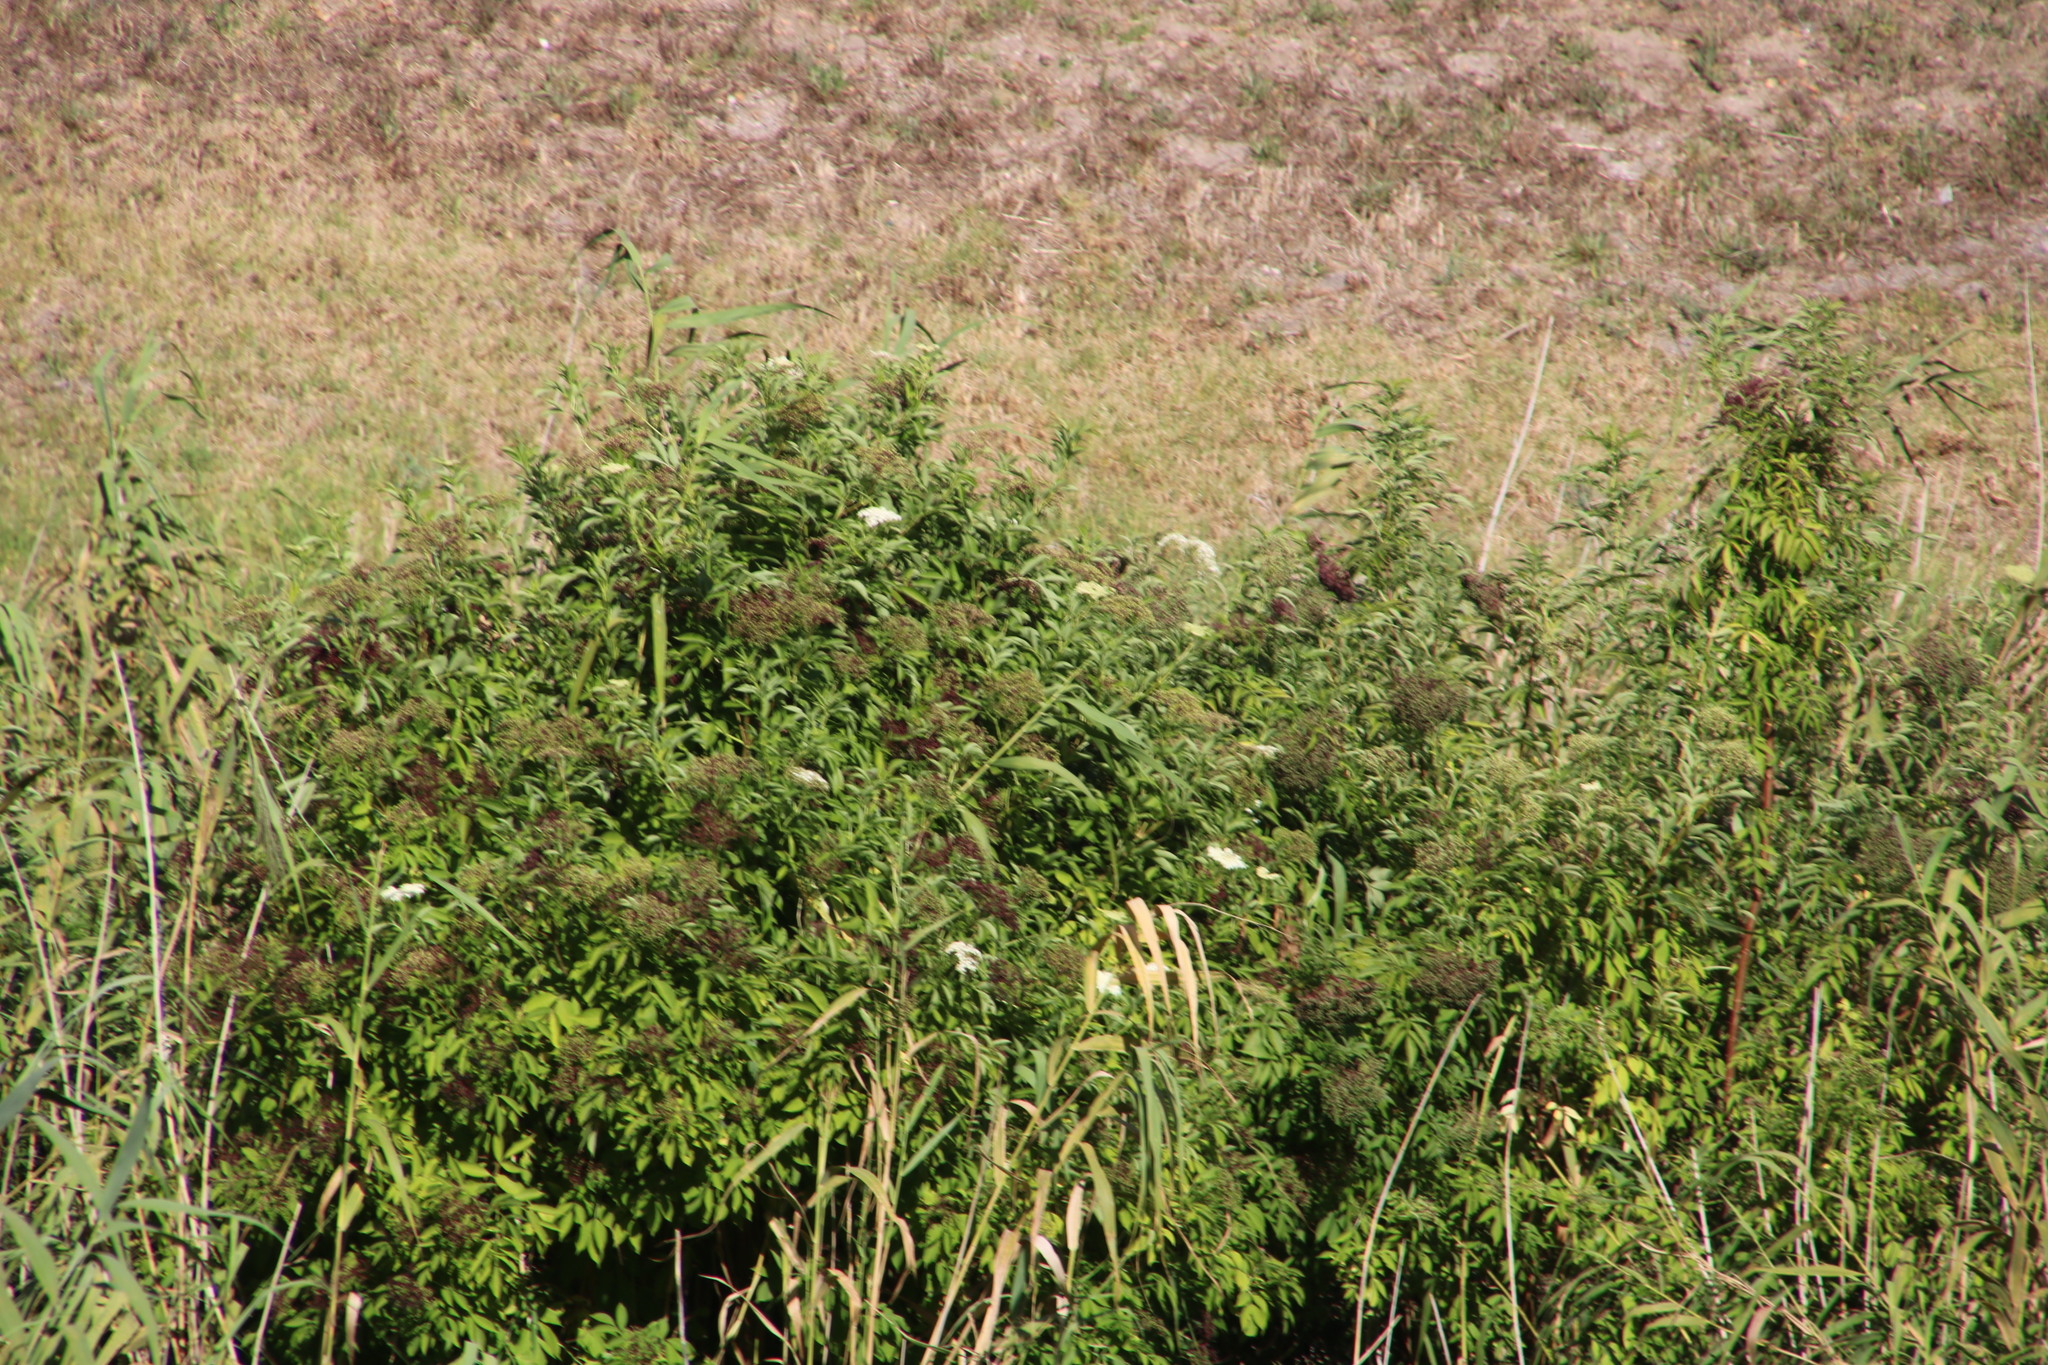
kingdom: Plantae
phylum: Tracheophyta
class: Magnoliopsida
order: Dipsacales
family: Viburnaceae
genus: Sambucus
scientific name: Sambucus nigra
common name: Elder
